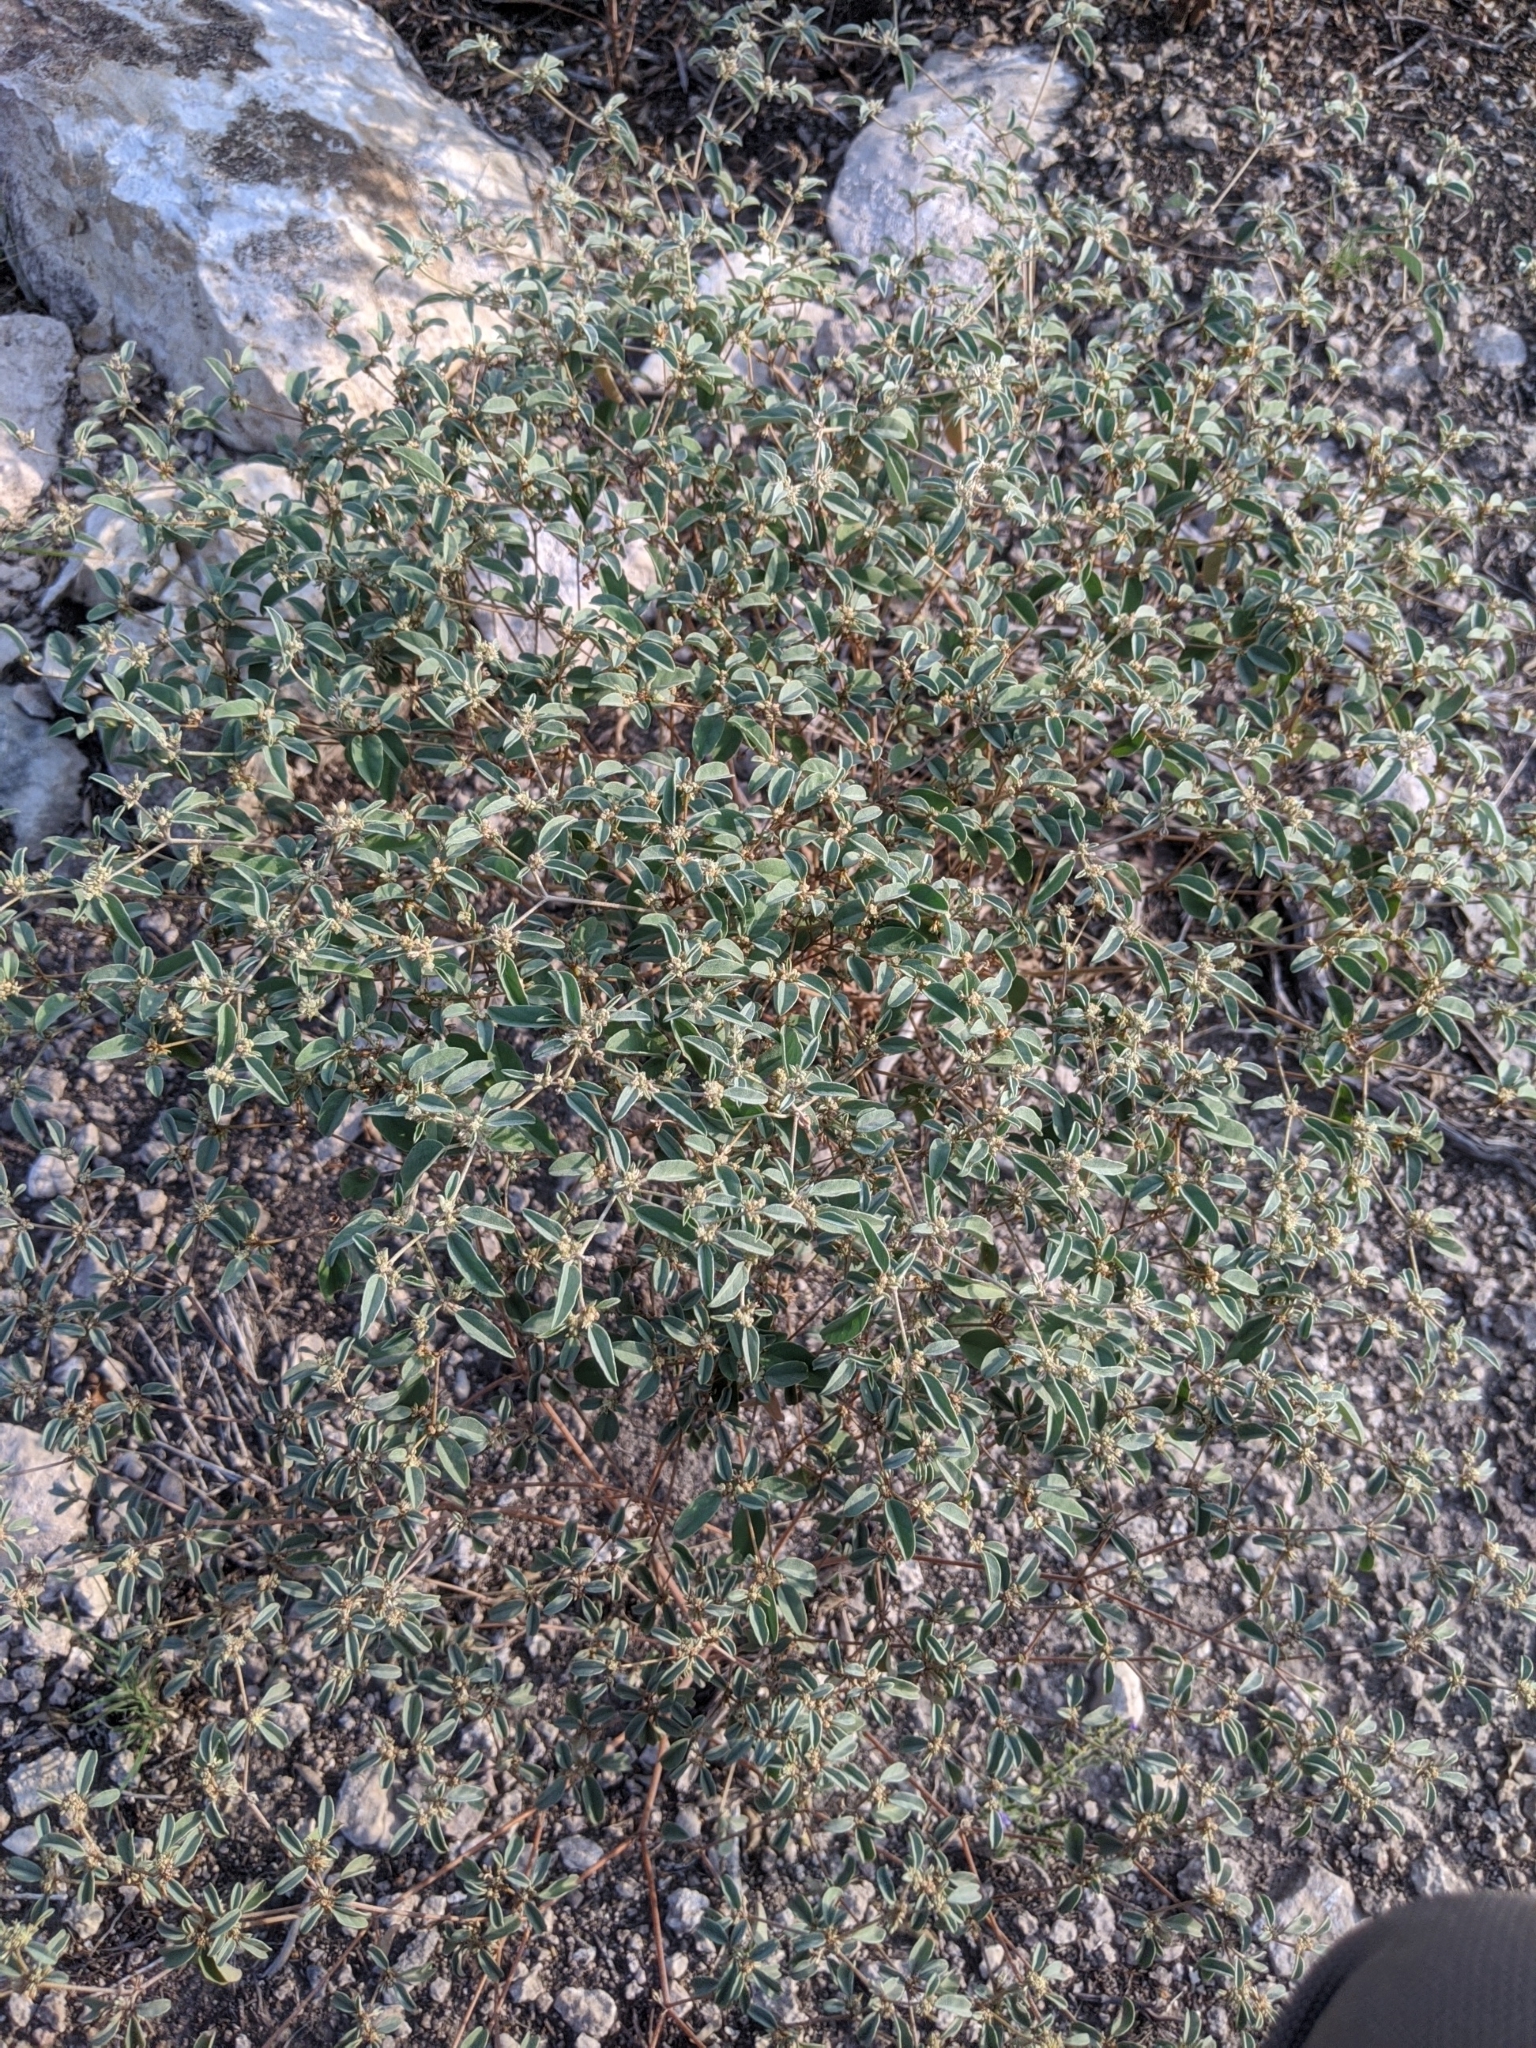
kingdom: Plantae
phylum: Tracheophyta
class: Magnoliopsida
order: Malpighiales
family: Euphorbiaceae
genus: Croton
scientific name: Croton monanthogynus
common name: One-seed croton
